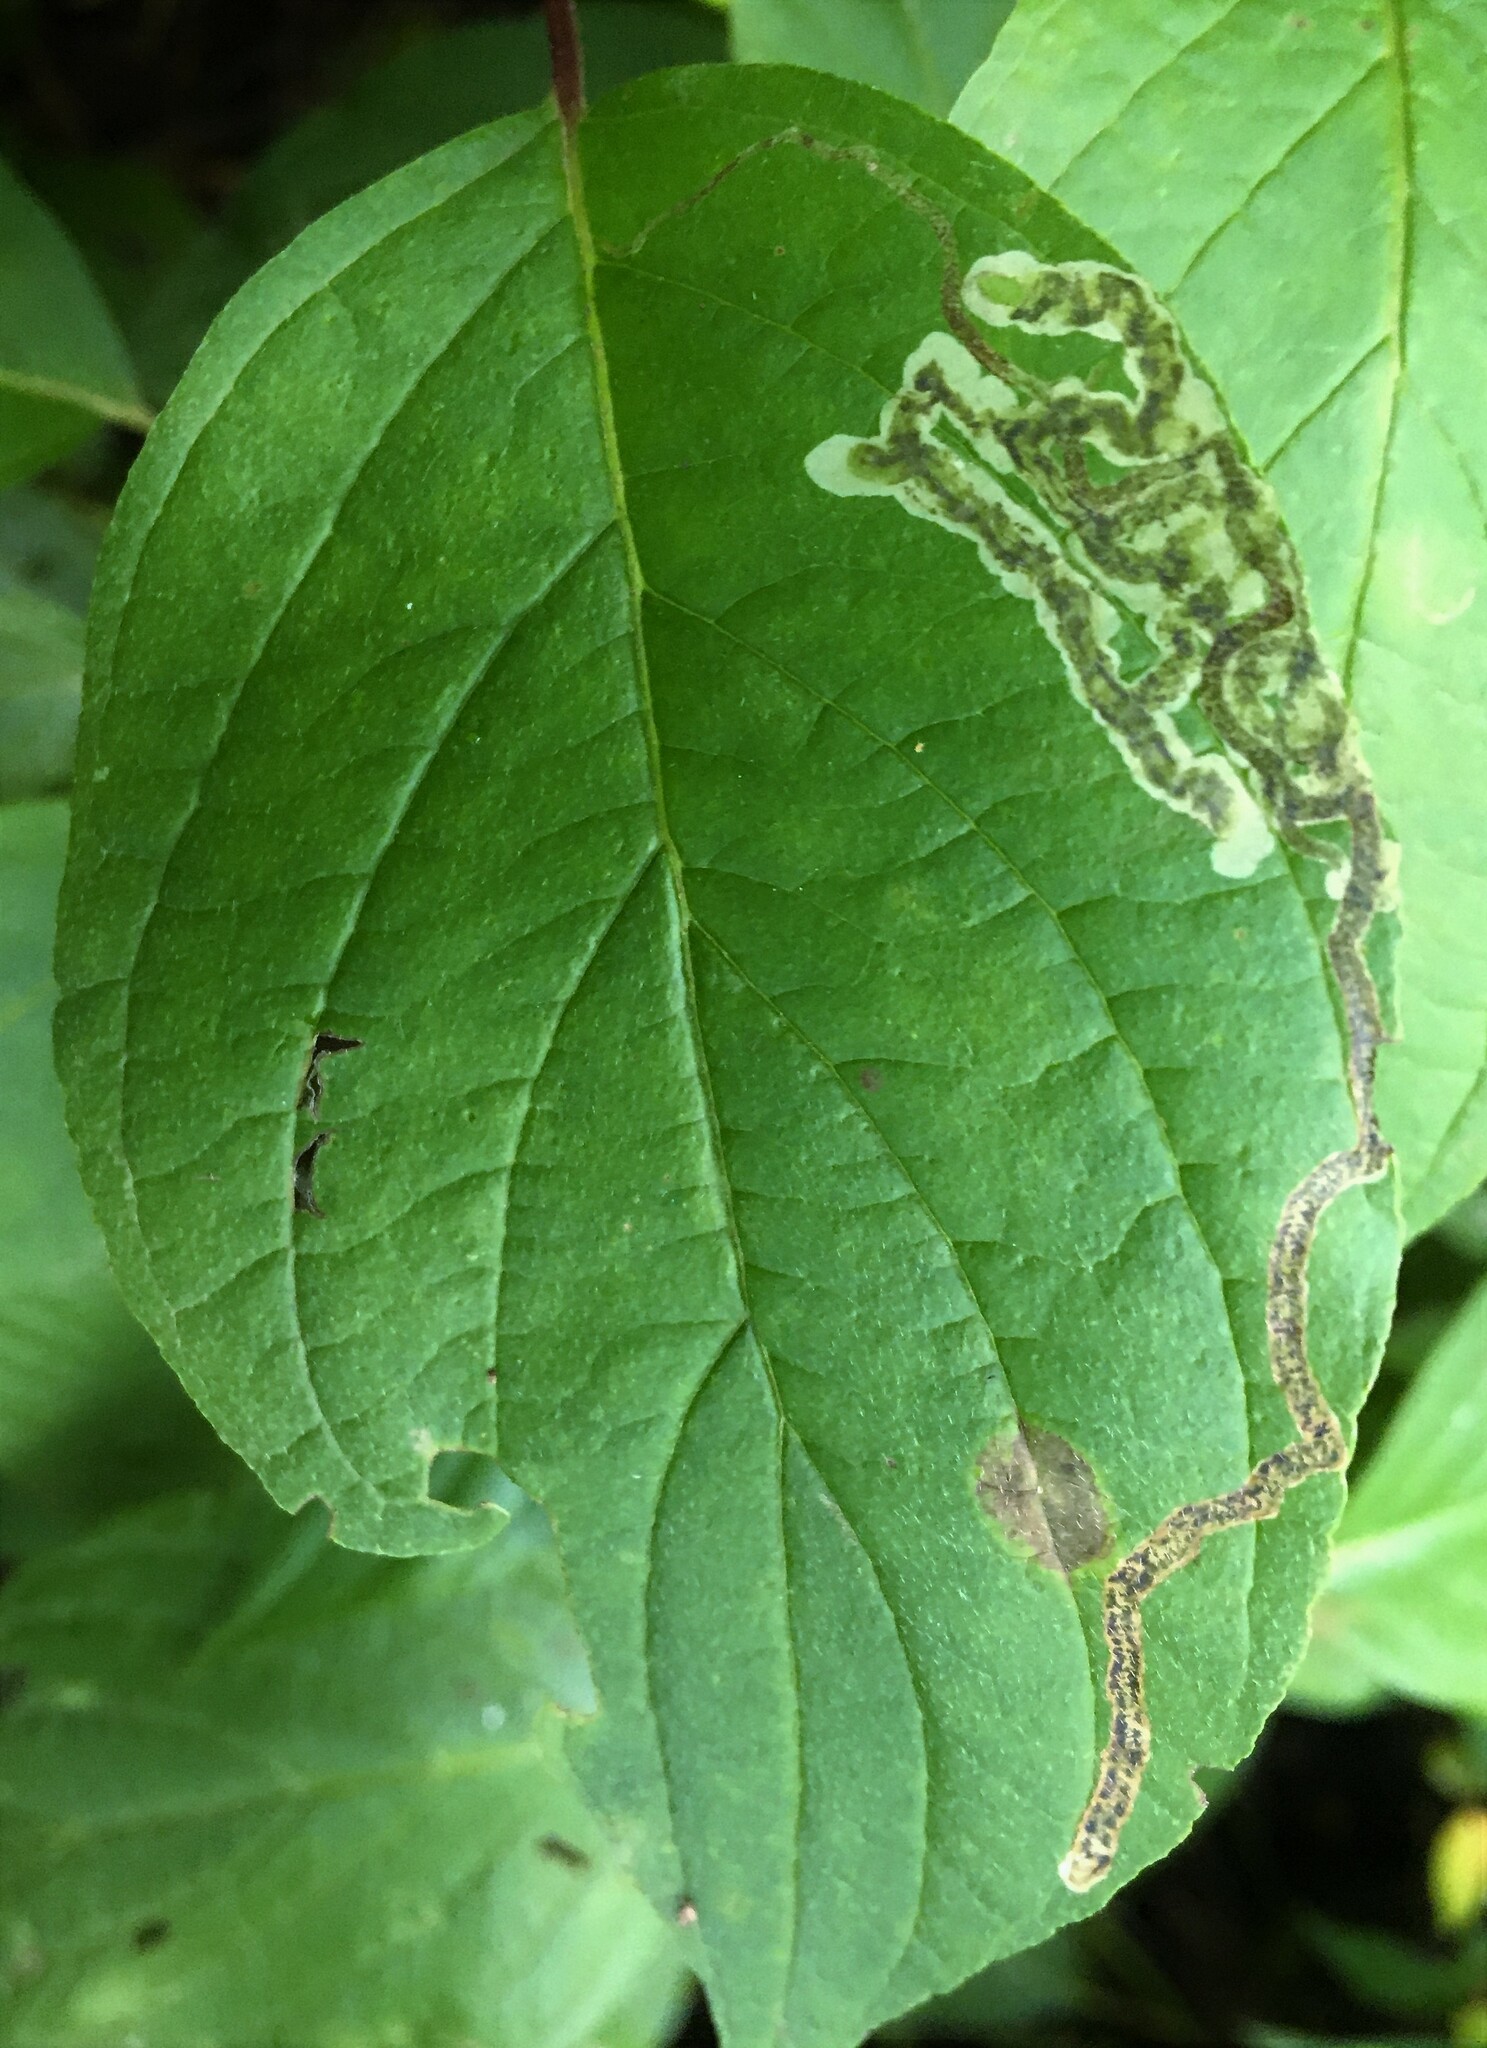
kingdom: Animalia
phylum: Arthropoda
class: Insecta
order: Diptera
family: Agromyzidae
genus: Phytomyza
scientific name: Phytomyza agromyzina
